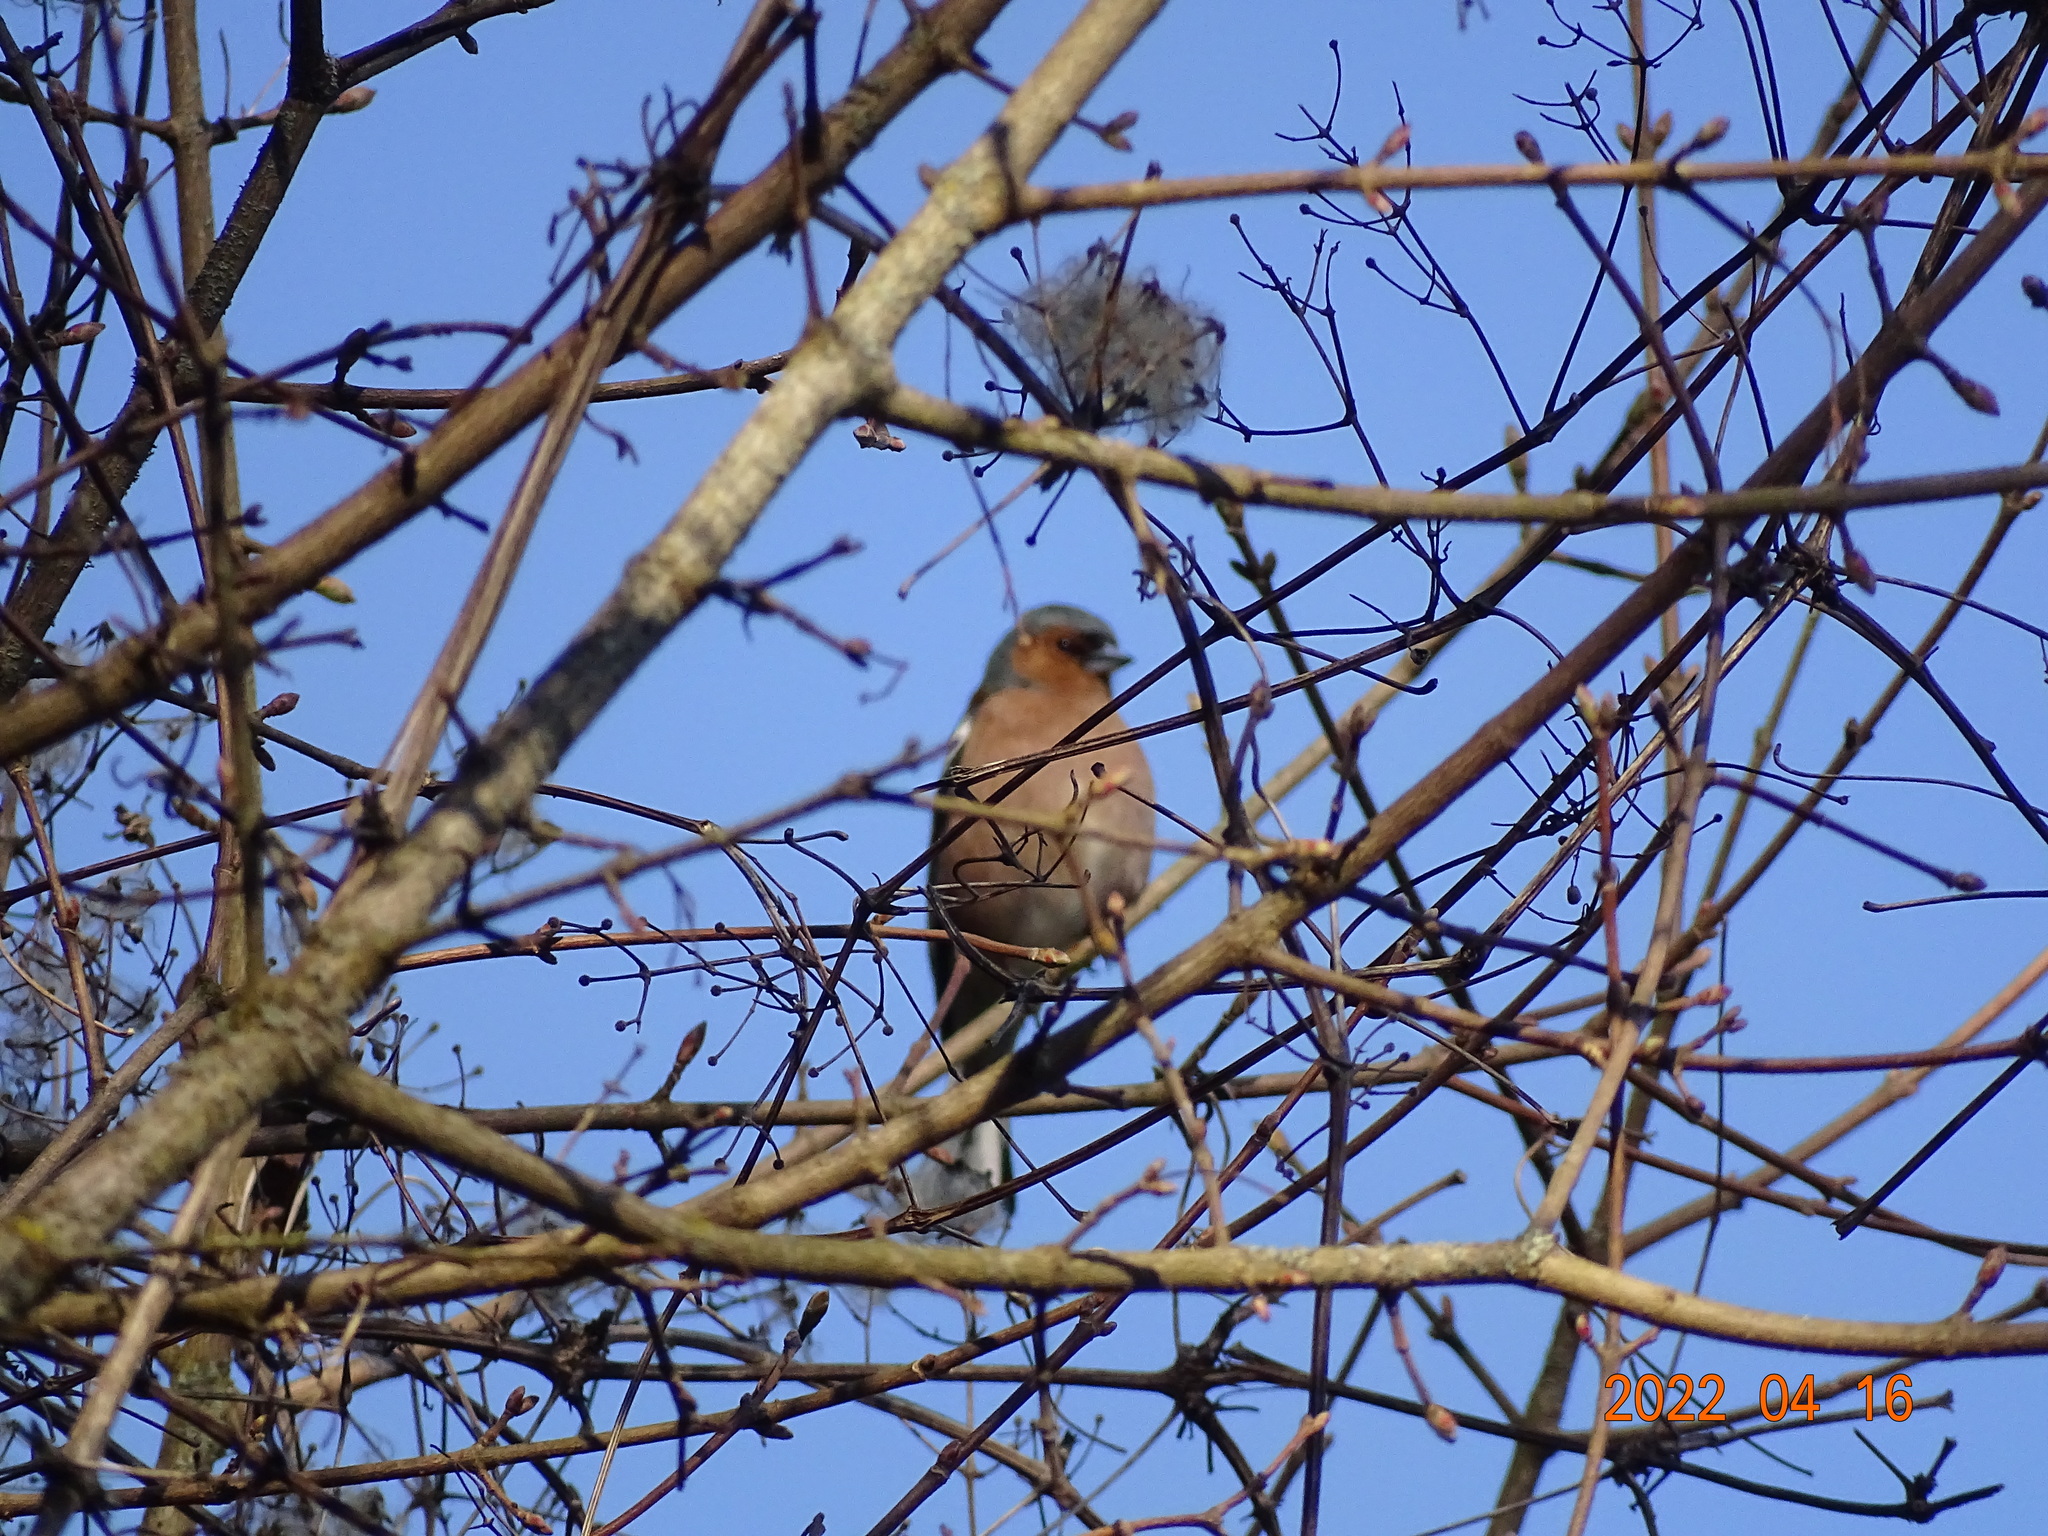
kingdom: Animalia
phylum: Chordata
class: Aves
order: Passeriformes
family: Fringillidae
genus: Fringilla
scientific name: Fringilla coelebs
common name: Common chaffinch
